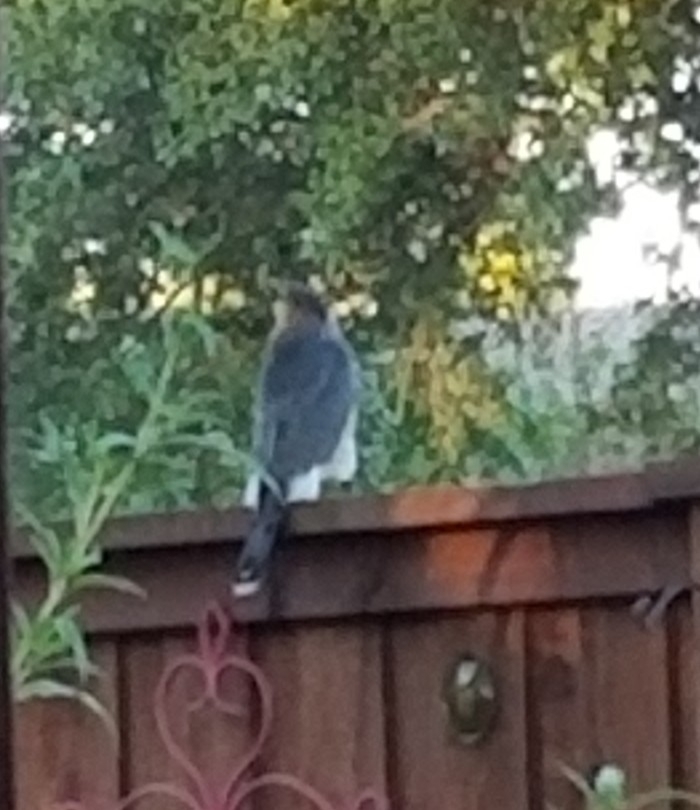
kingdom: Animalia
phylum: Chordata
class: Aves
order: Accipitriformes
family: Accipitridae
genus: Accipiter
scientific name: Accipiter cooperii
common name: Cooper's hawk
